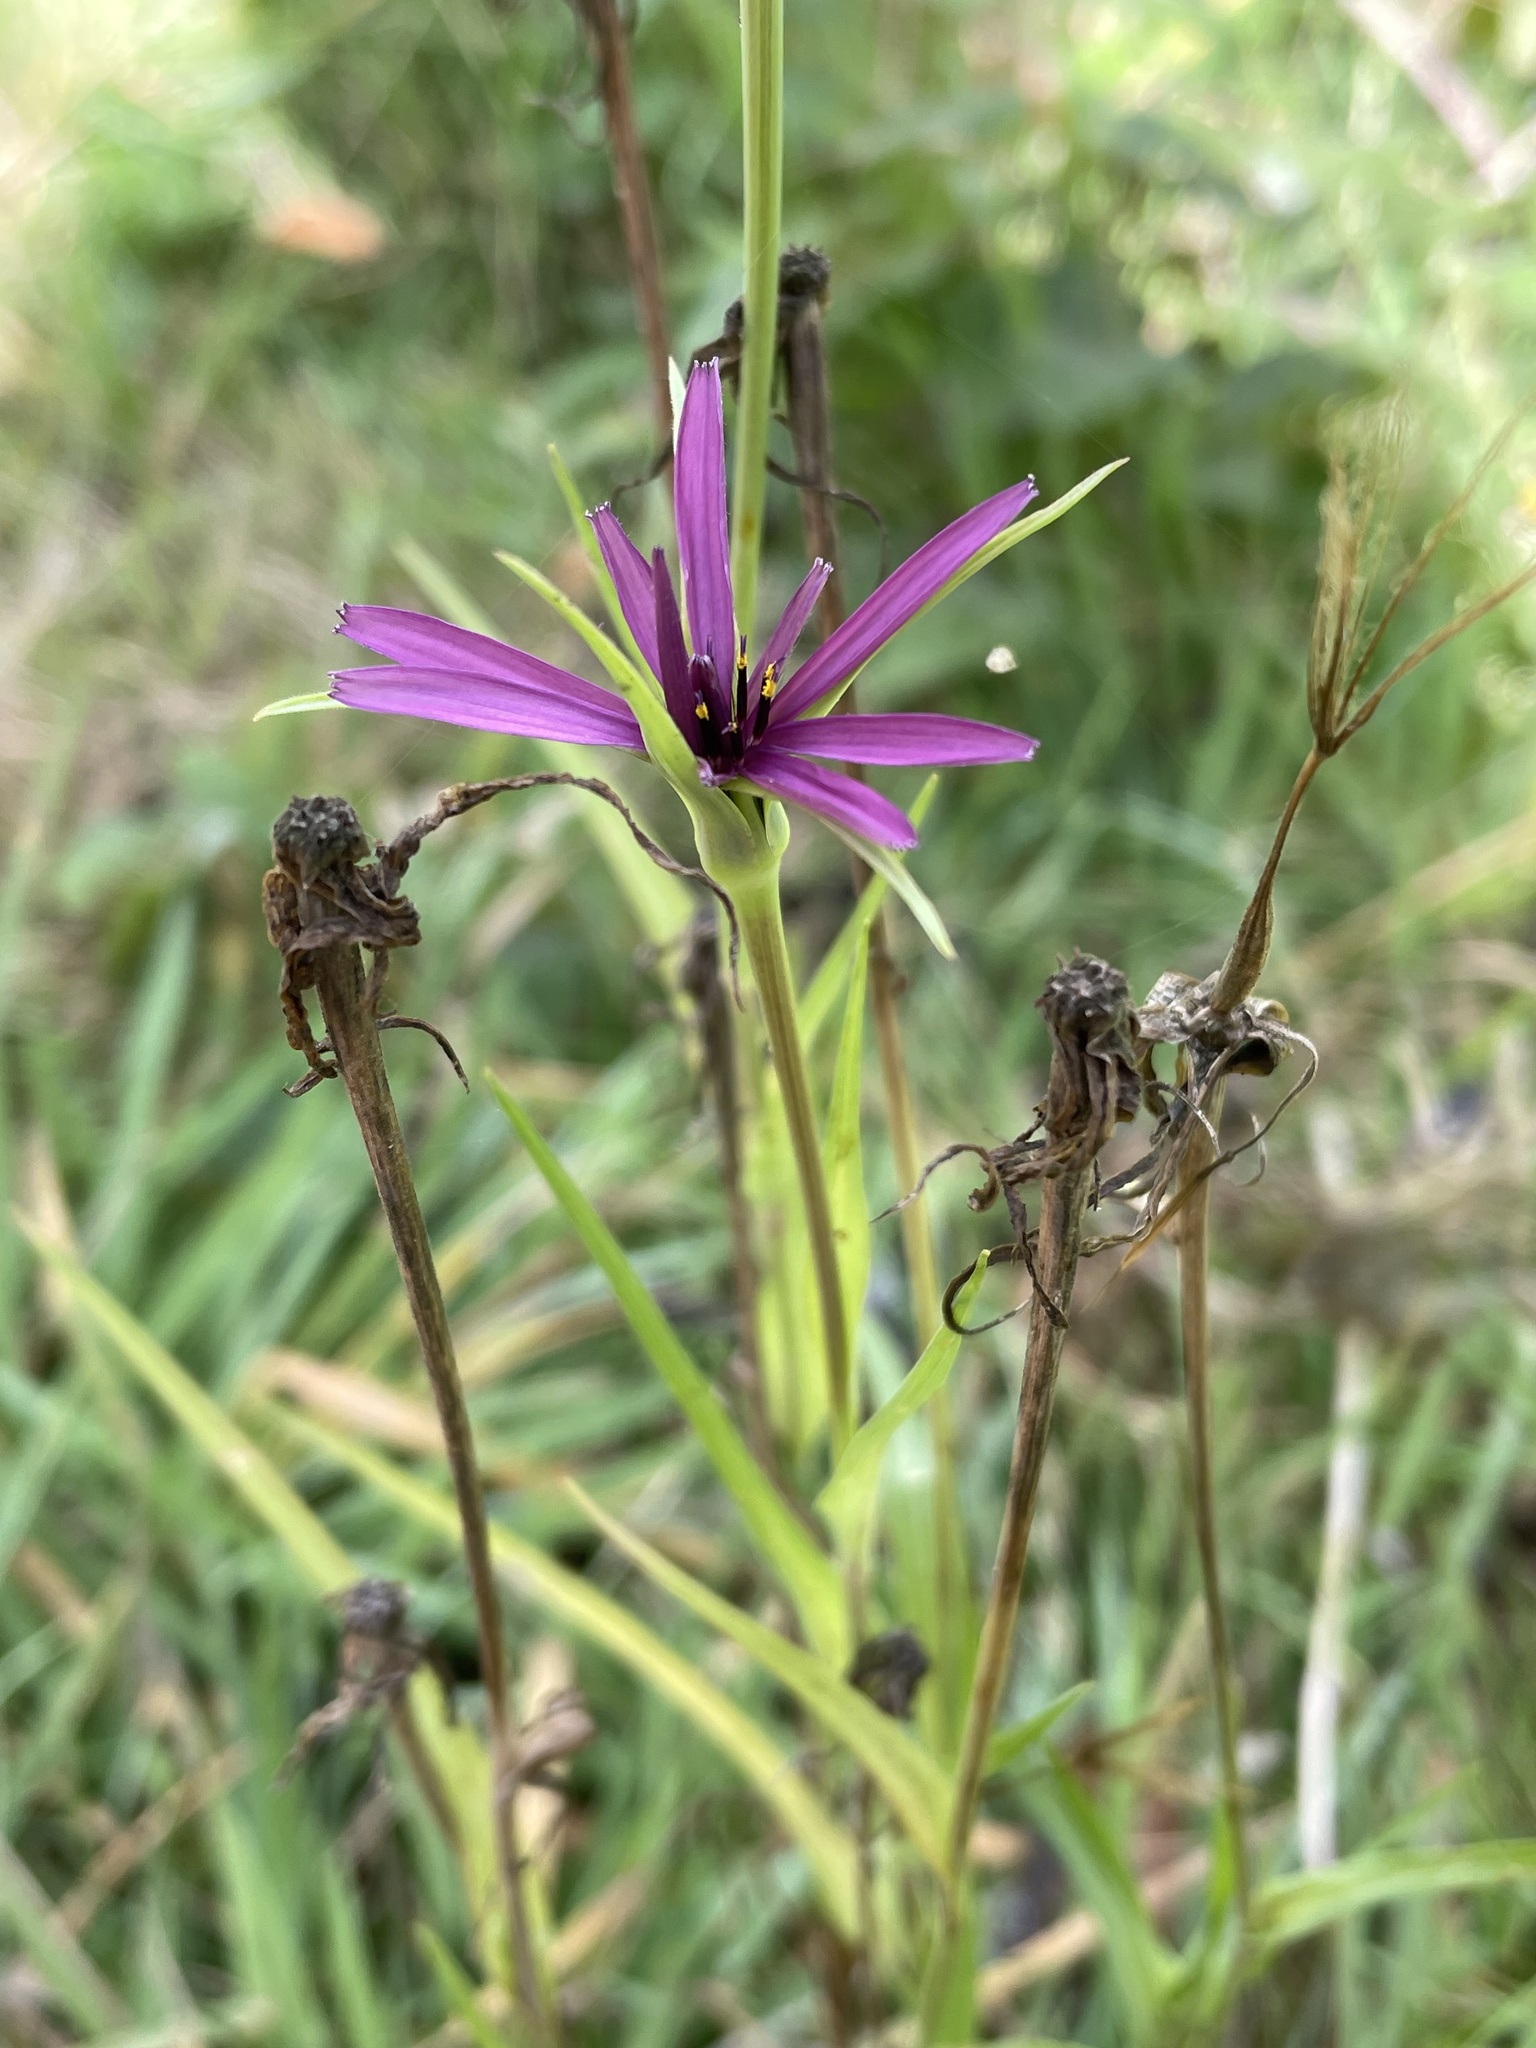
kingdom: Plantae
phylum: Tracheophyta
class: Magnoliopsida
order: Asterales
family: Asteraceae
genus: Tragopogon
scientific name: Tragopogon porrifolius
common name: Salsify
